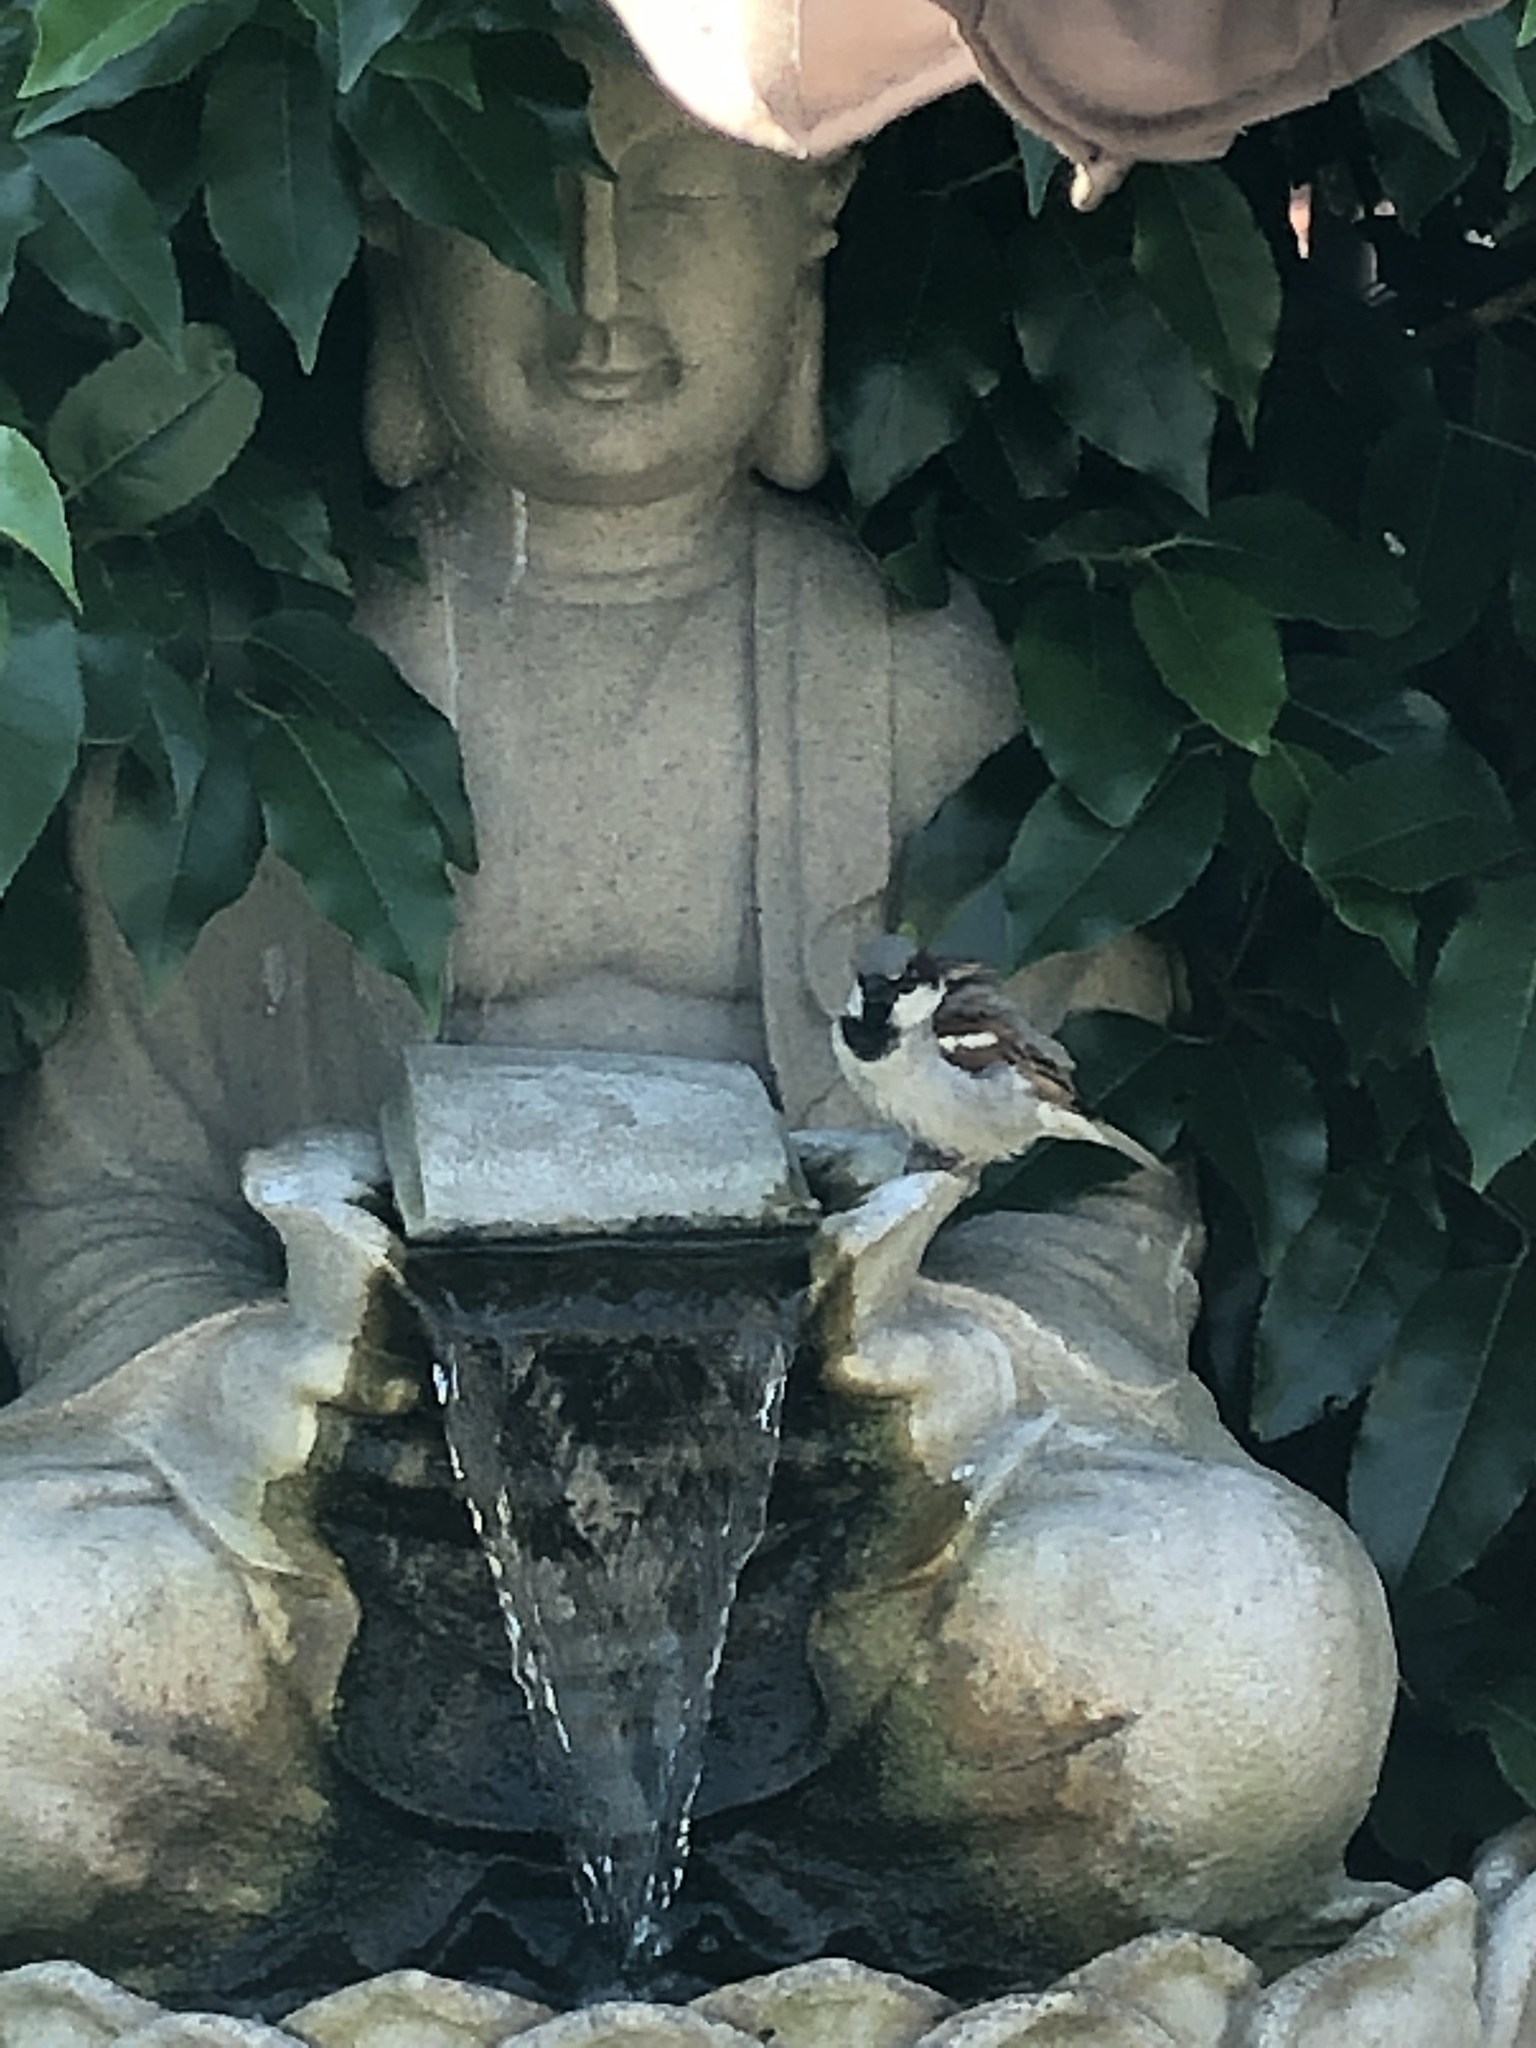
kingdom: Animalia
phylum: Chordata
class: Aves
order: Passeriformes
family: Passeridae
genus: Passer
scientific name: Passer domesticus
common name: House sparrow
